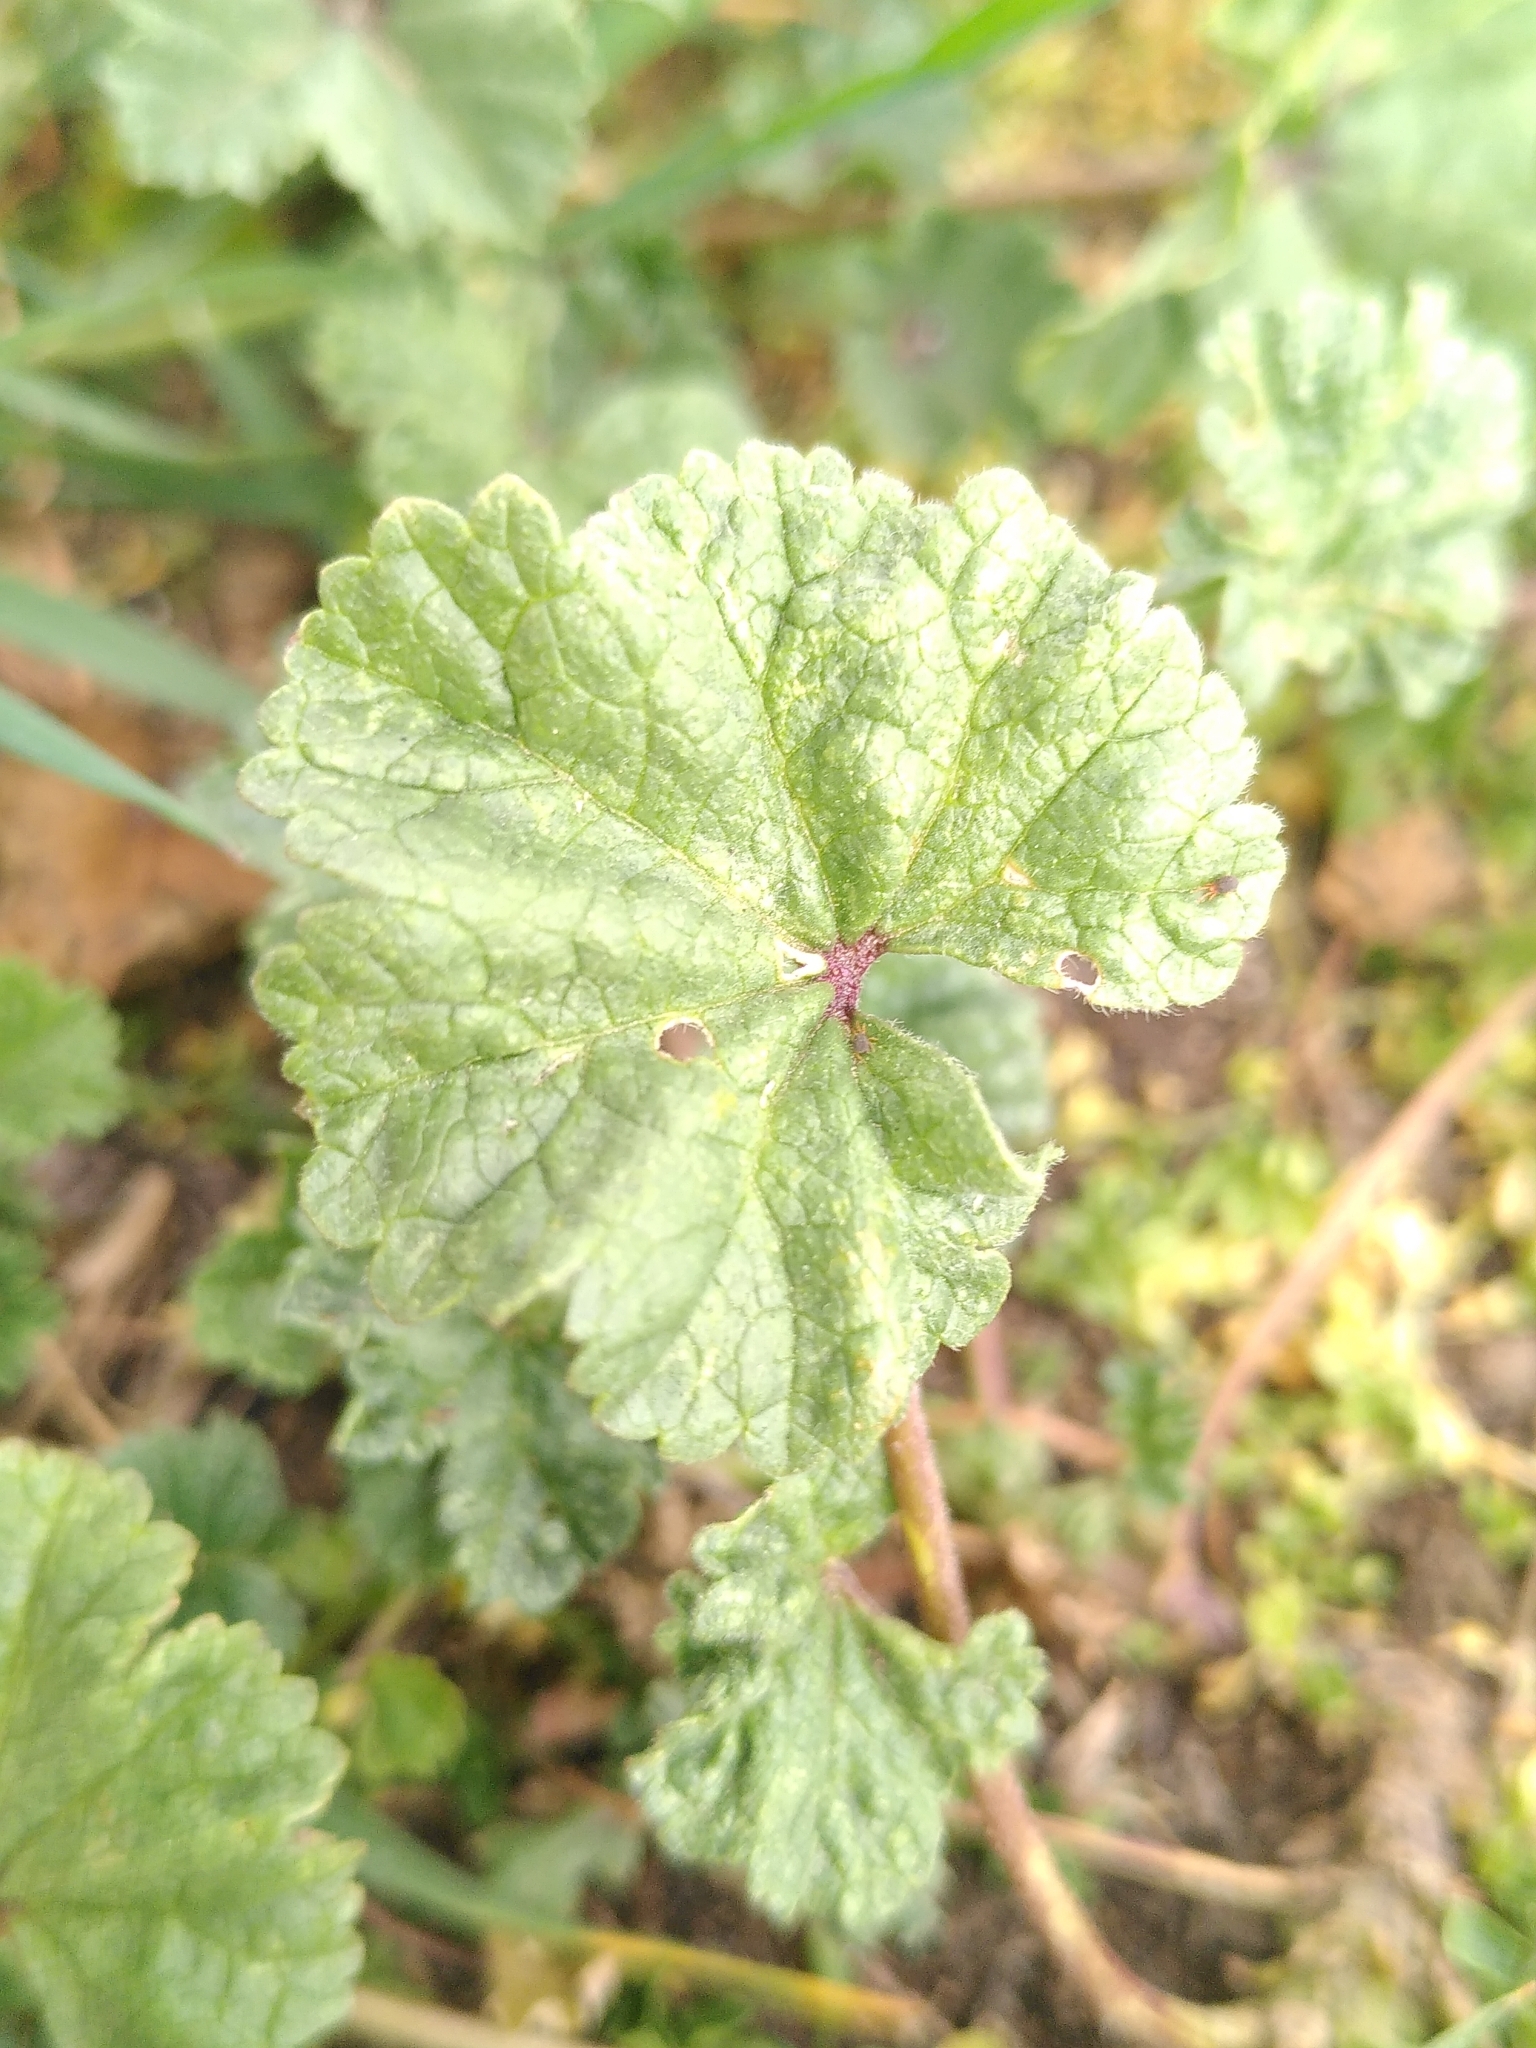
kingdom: Plantae
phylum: Tracheophyta
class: Magnoliopsida
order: Malvales
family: Malvaceae
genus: Malva
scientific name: Malva sylvestris
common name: Common mallow
